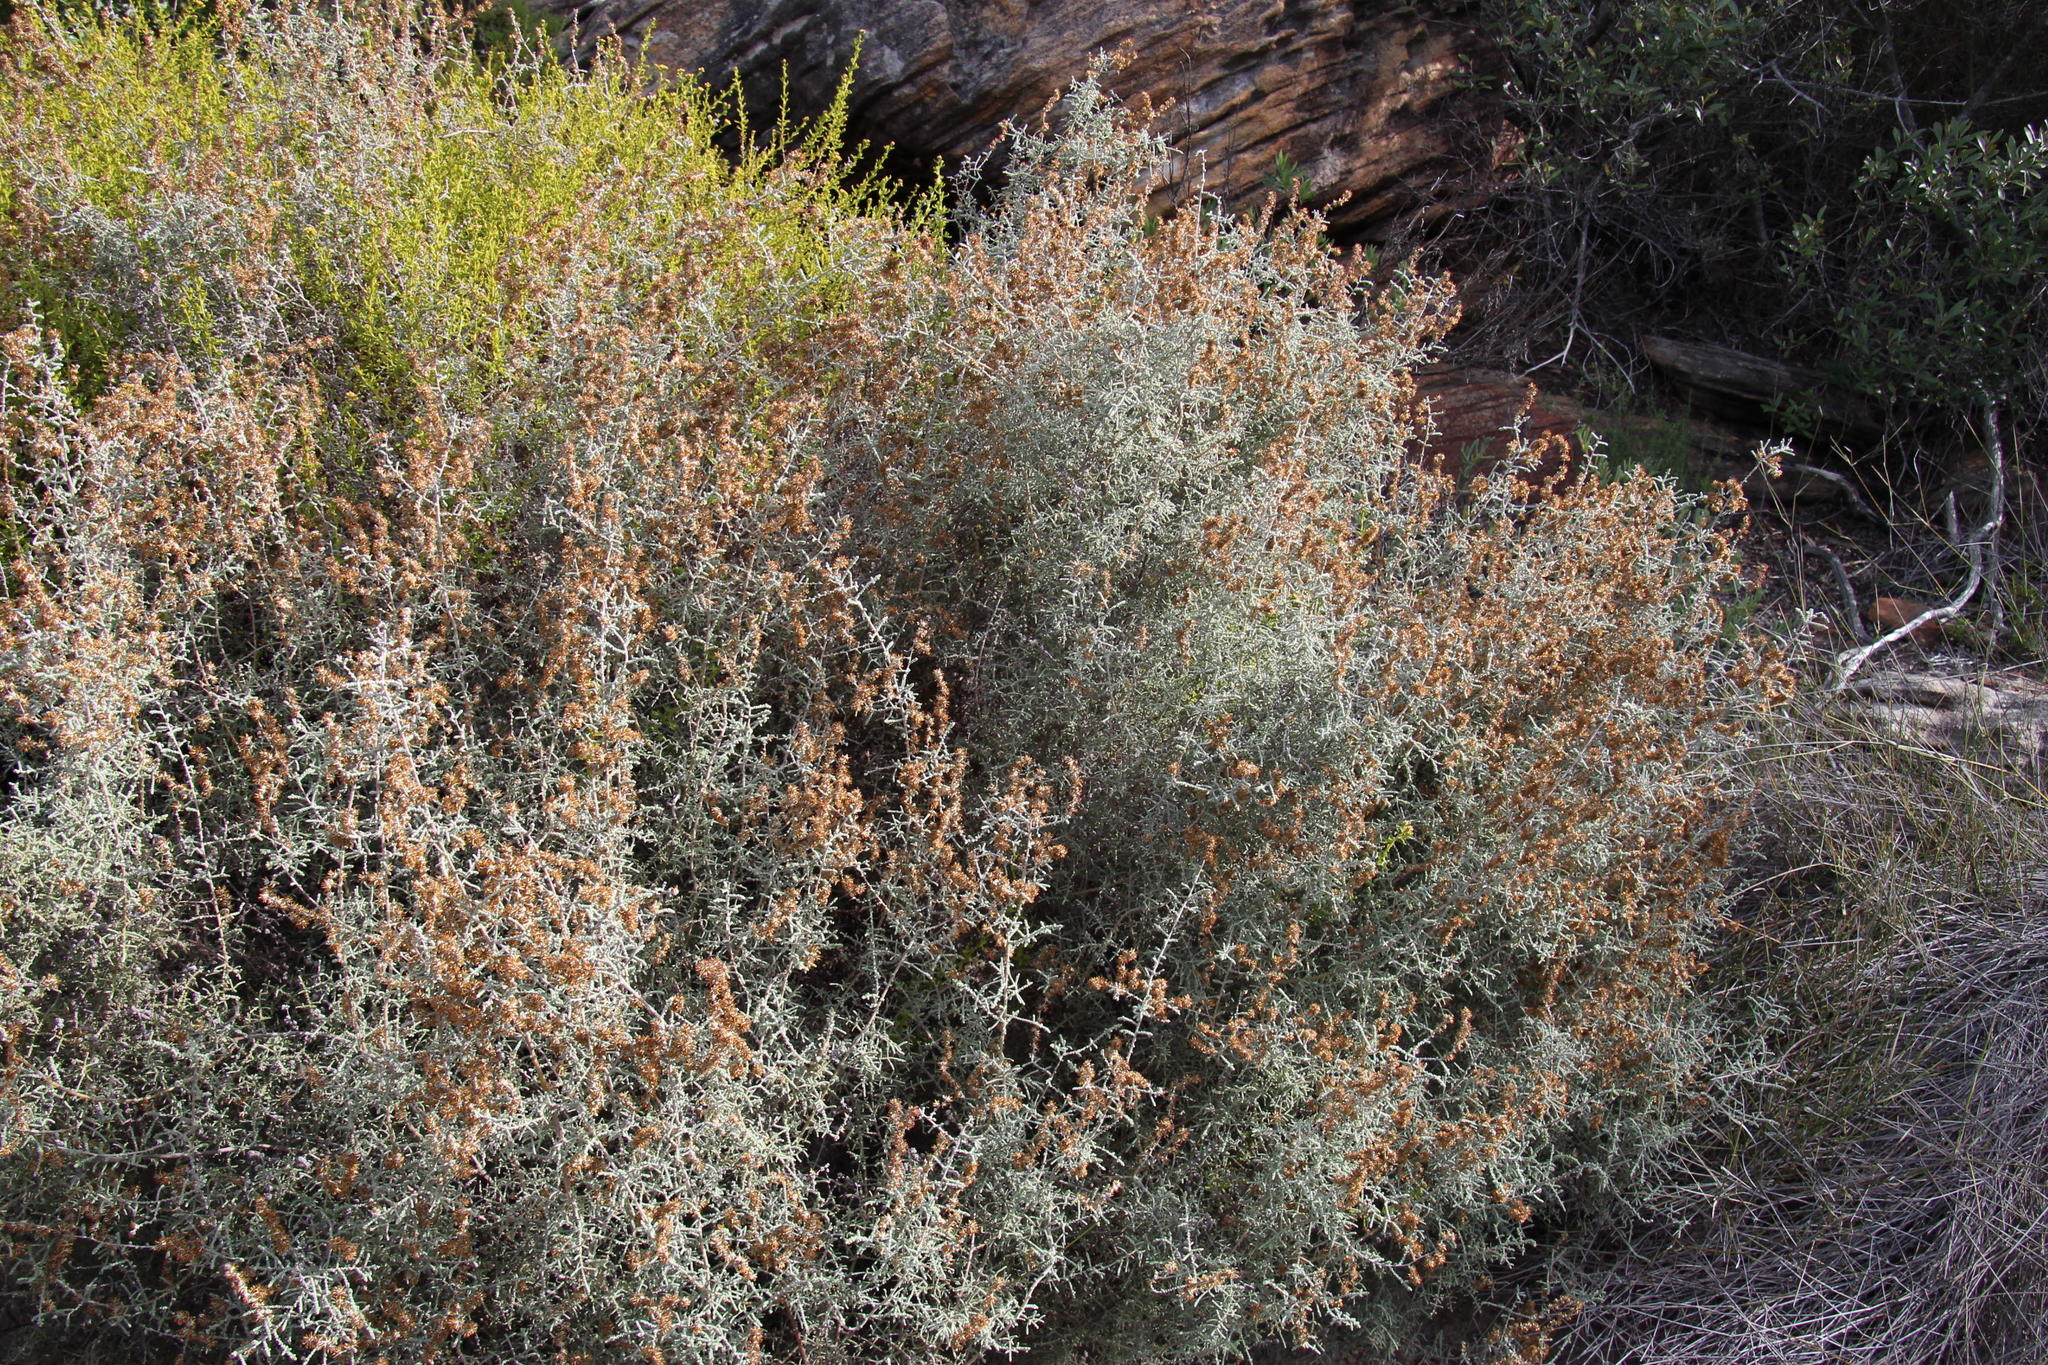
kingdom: Plantae
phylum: Tracheophyta
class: Magnoliopsida
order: Asterales
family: Asteraceae
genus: Seriphium
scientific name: Seriphium plumosum
